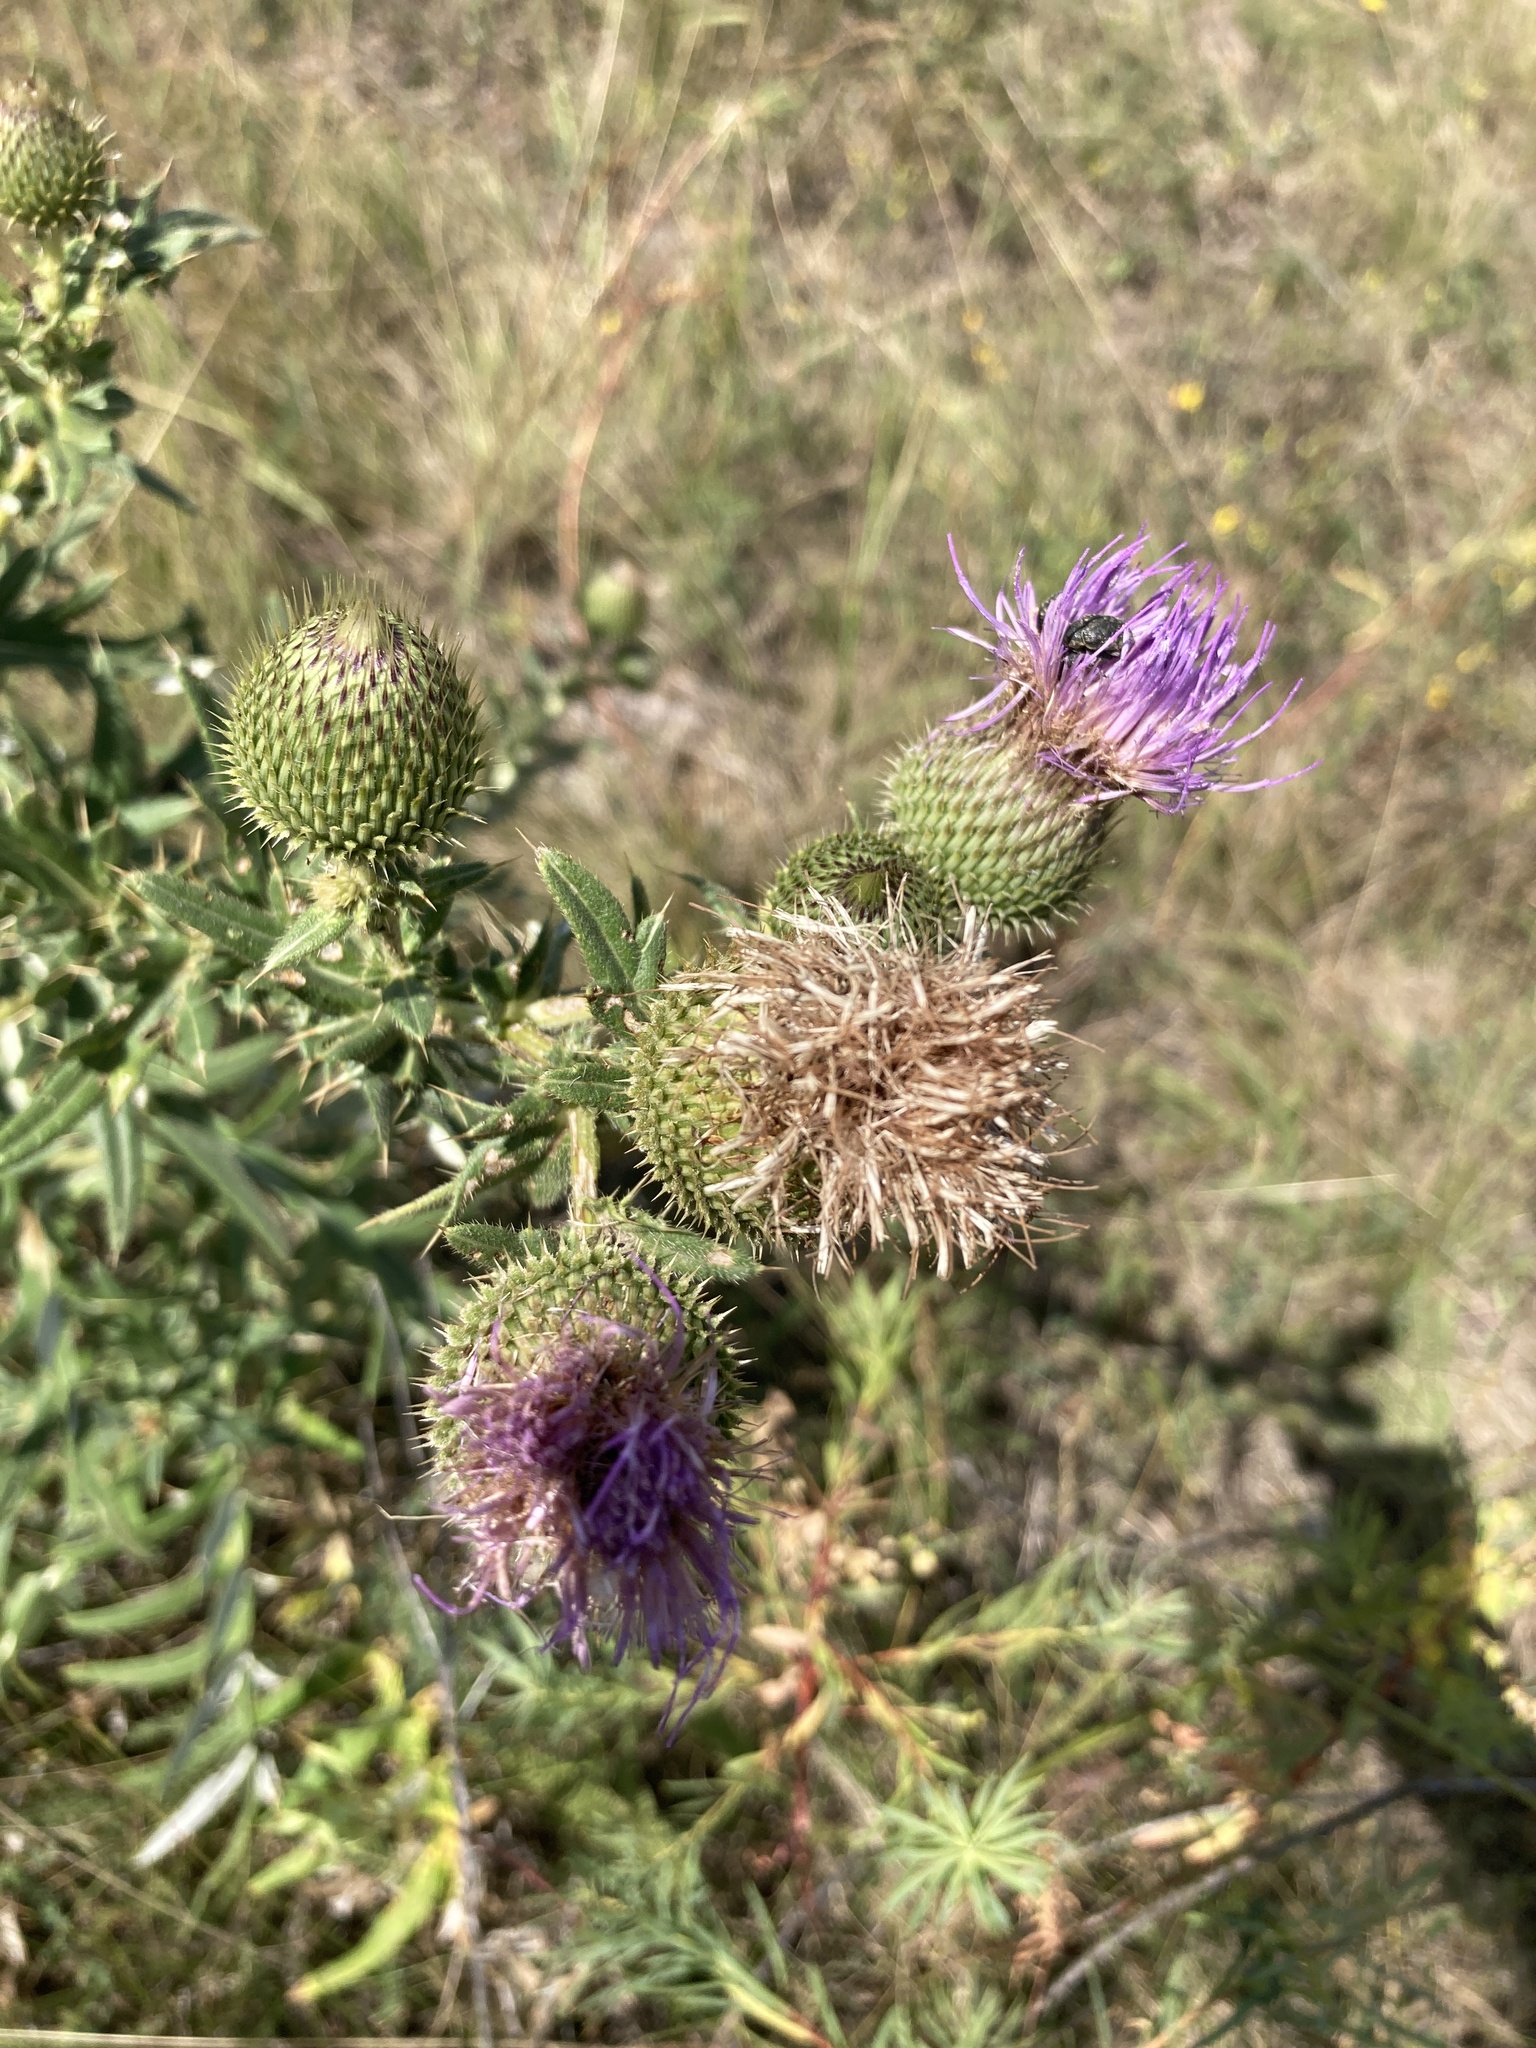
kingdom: Plantae
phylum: Tracheophyta
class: Magnoliopsida
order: Asterales
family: Asteraceae
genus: Cirsium
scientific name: Cirsium serrulatum
